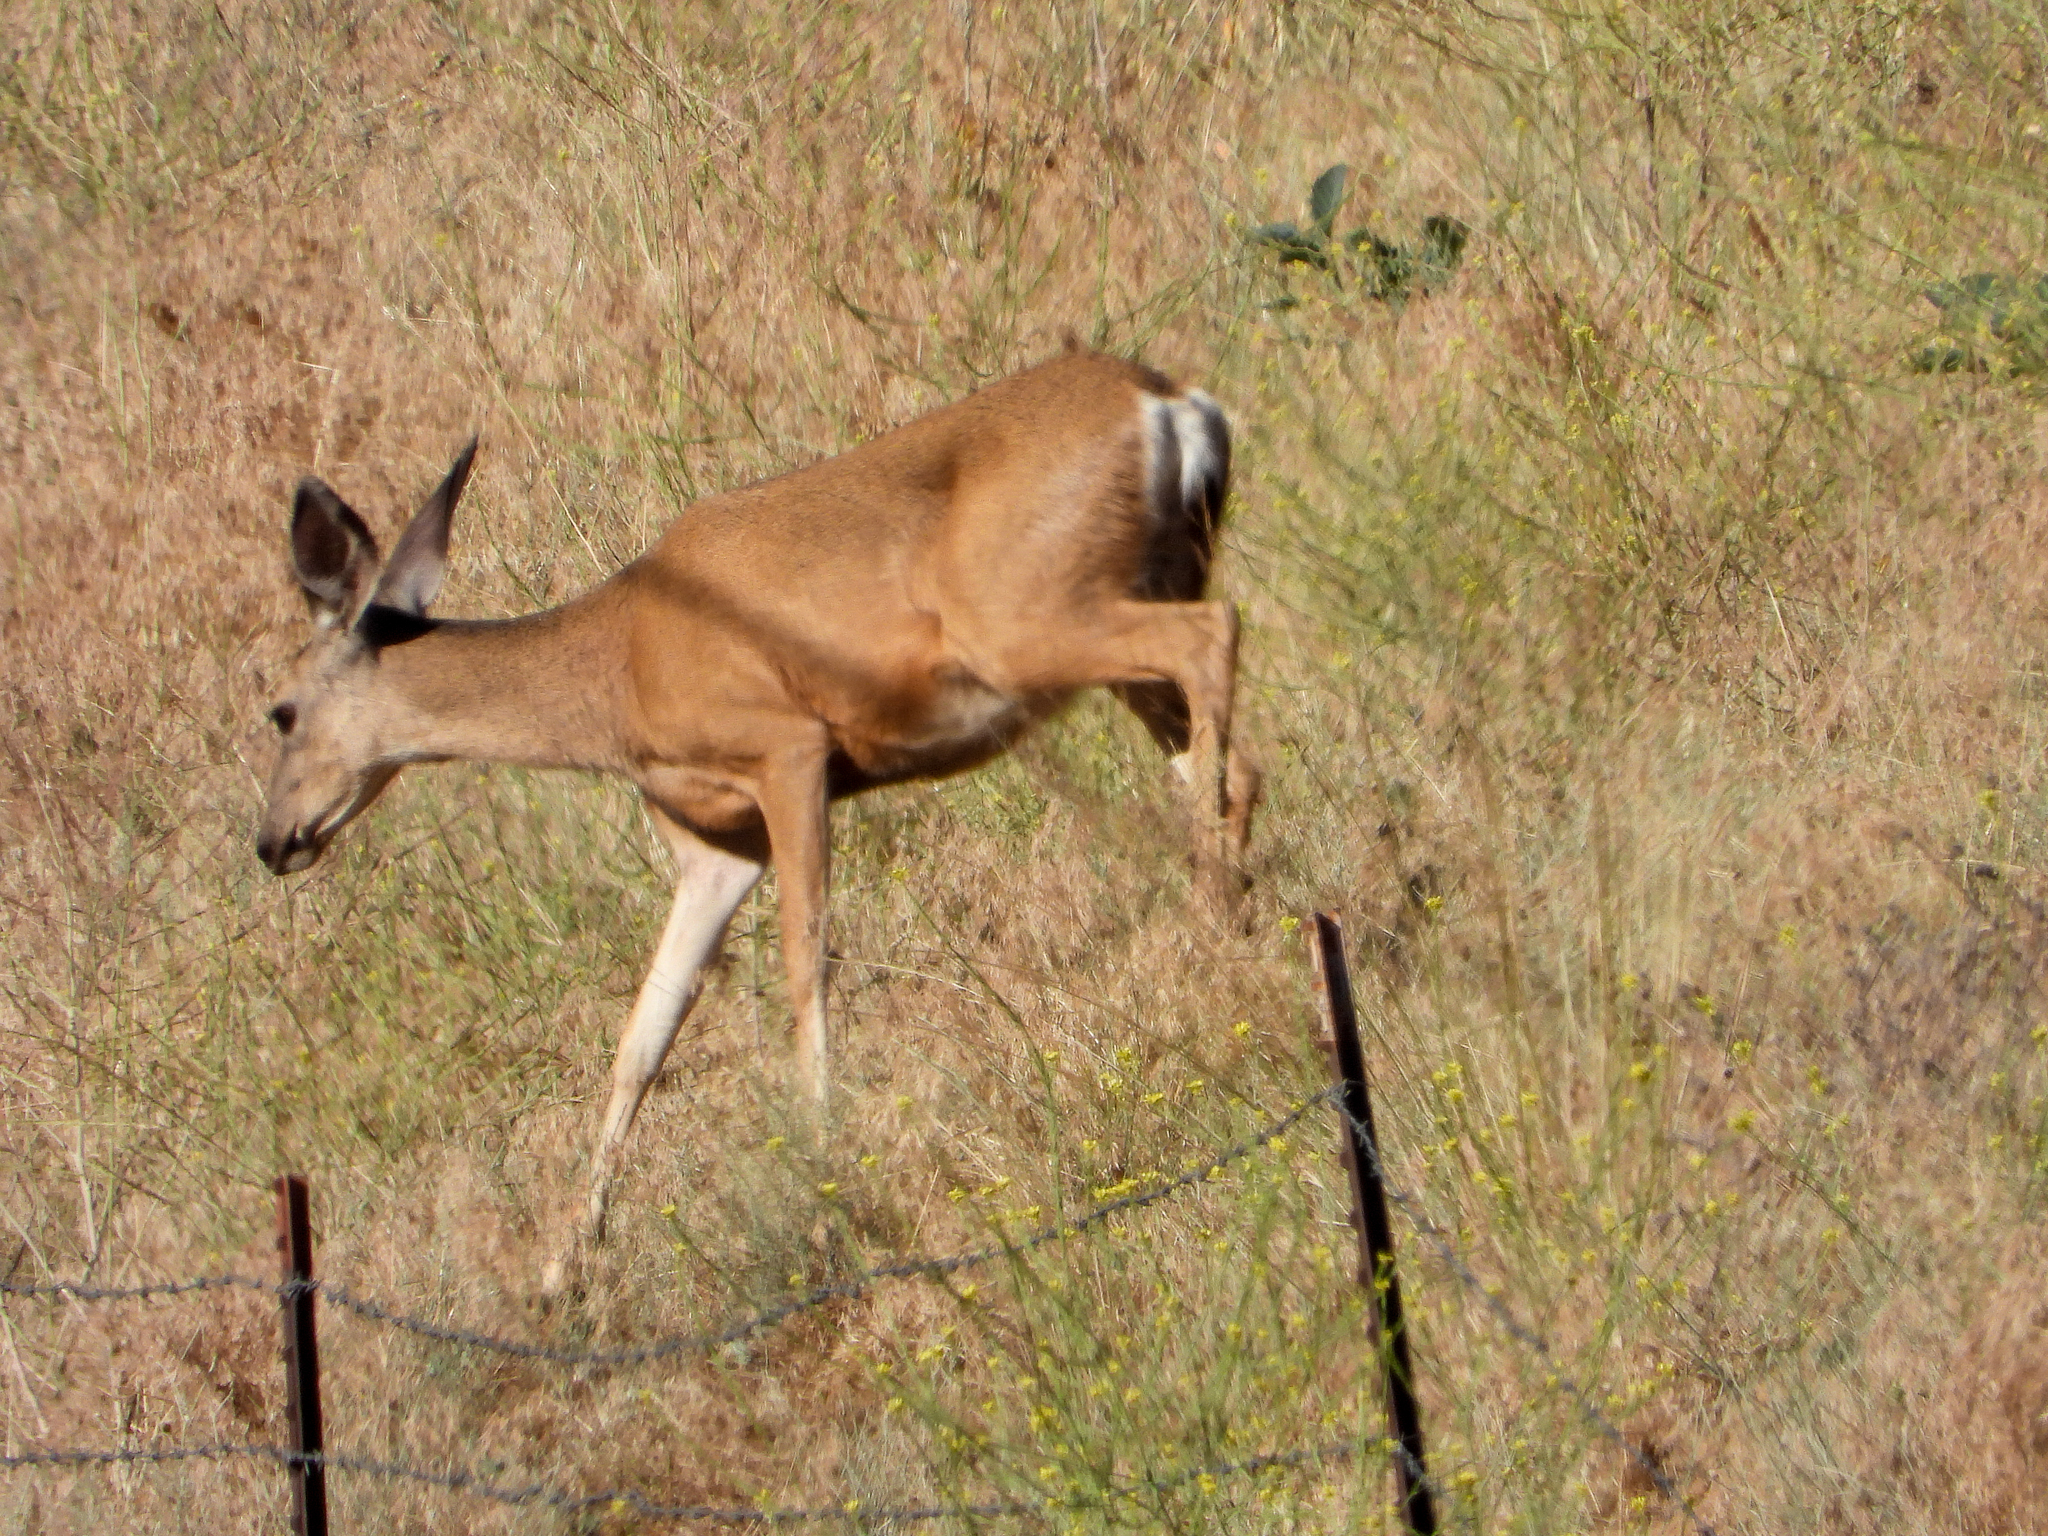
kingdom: Animalia
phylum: Chordata
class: Mammalia
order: Artiodactyla
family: Cervidae
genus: Odocoileus
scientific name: Odocoileus hemionus
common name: Mule deer
